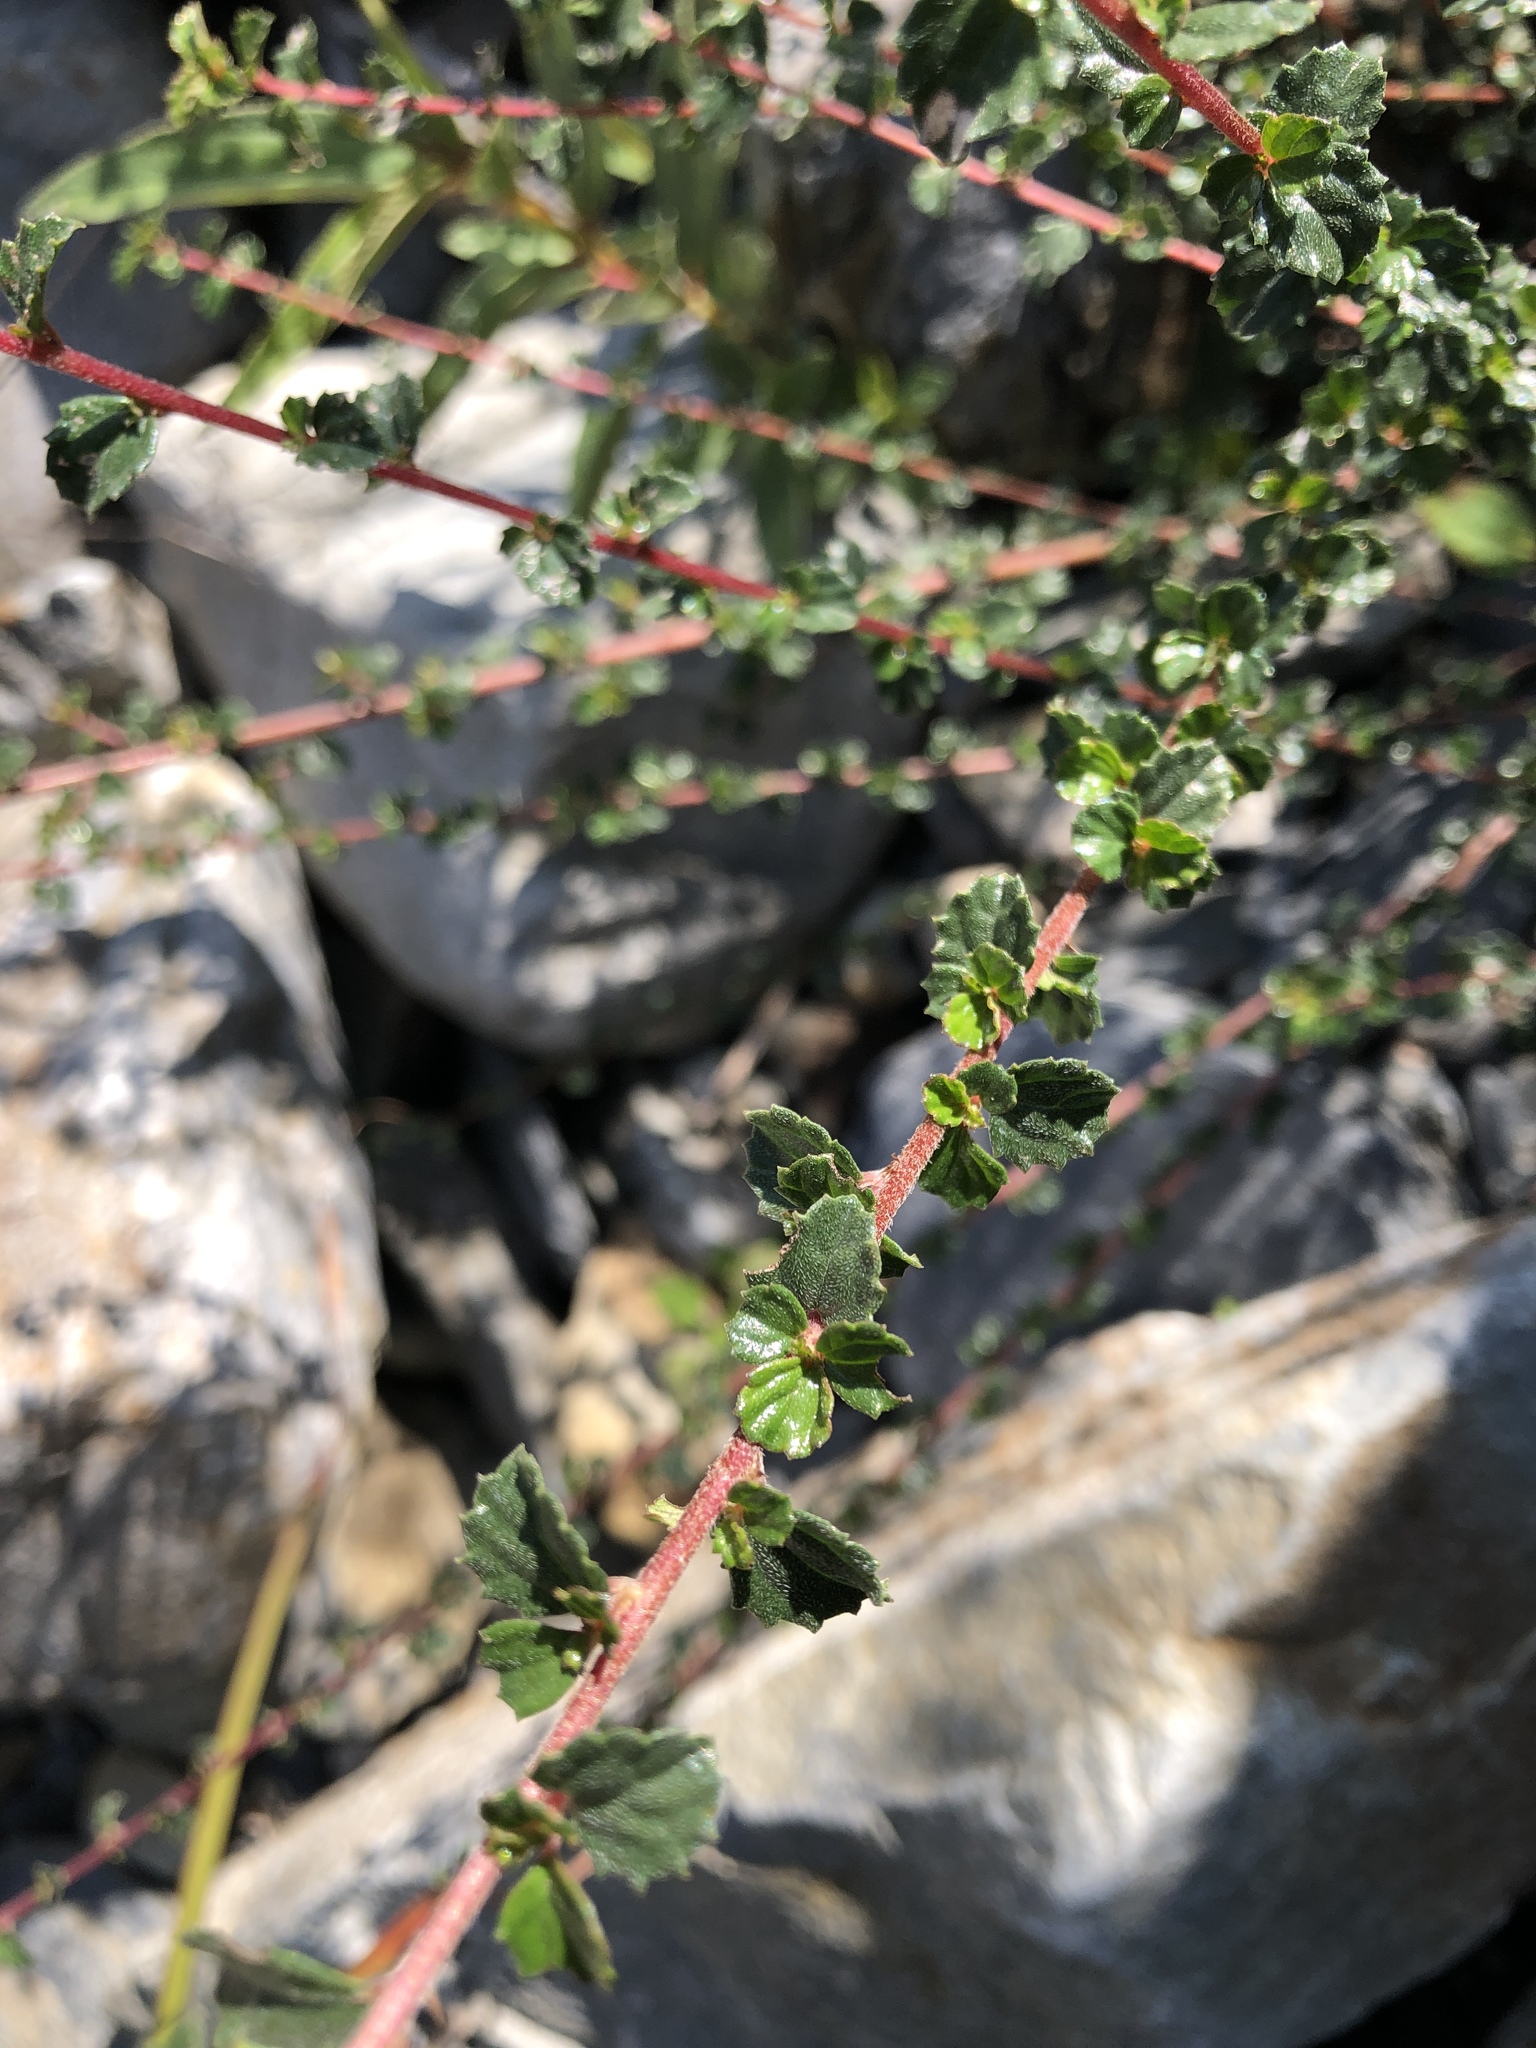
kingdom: Plantae
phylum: Tracheophyta
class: Magnoliopsida
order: Rosales
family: Urticaceae
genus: Pouzolzia
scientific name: Pouzolzia sanguinea
